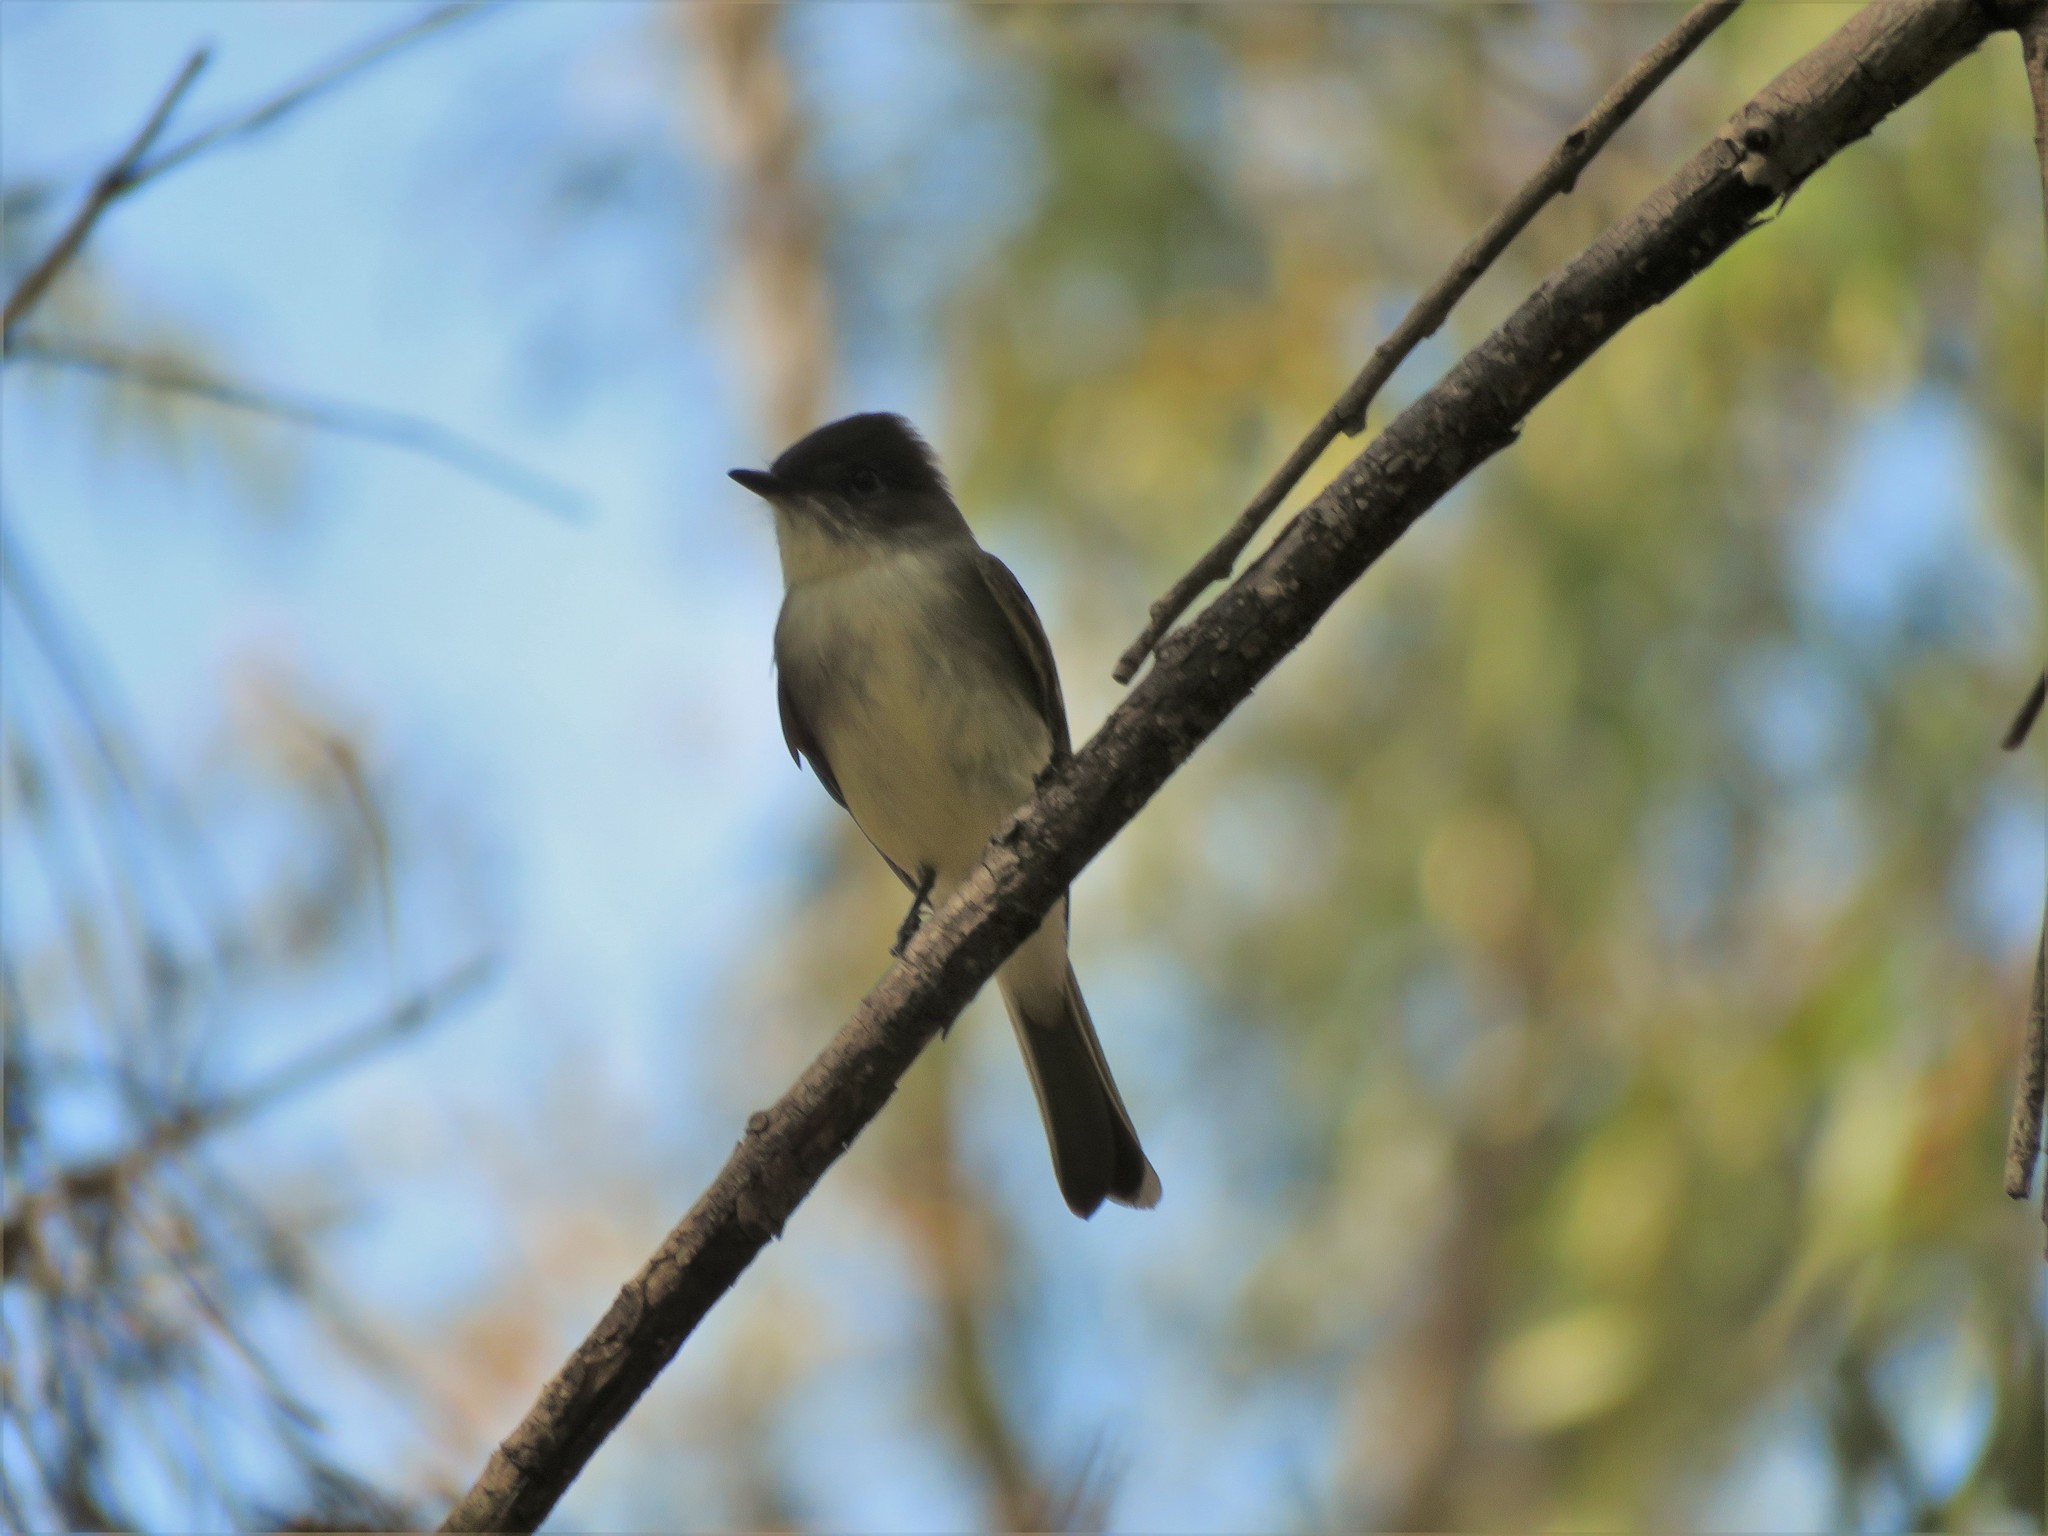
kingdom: Animalia
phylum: Chordata
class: Aves
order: Passeriformes
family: Tyrannidae
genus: Sayornis
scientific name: Sayornis phoebe
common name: Eastern phoebe
